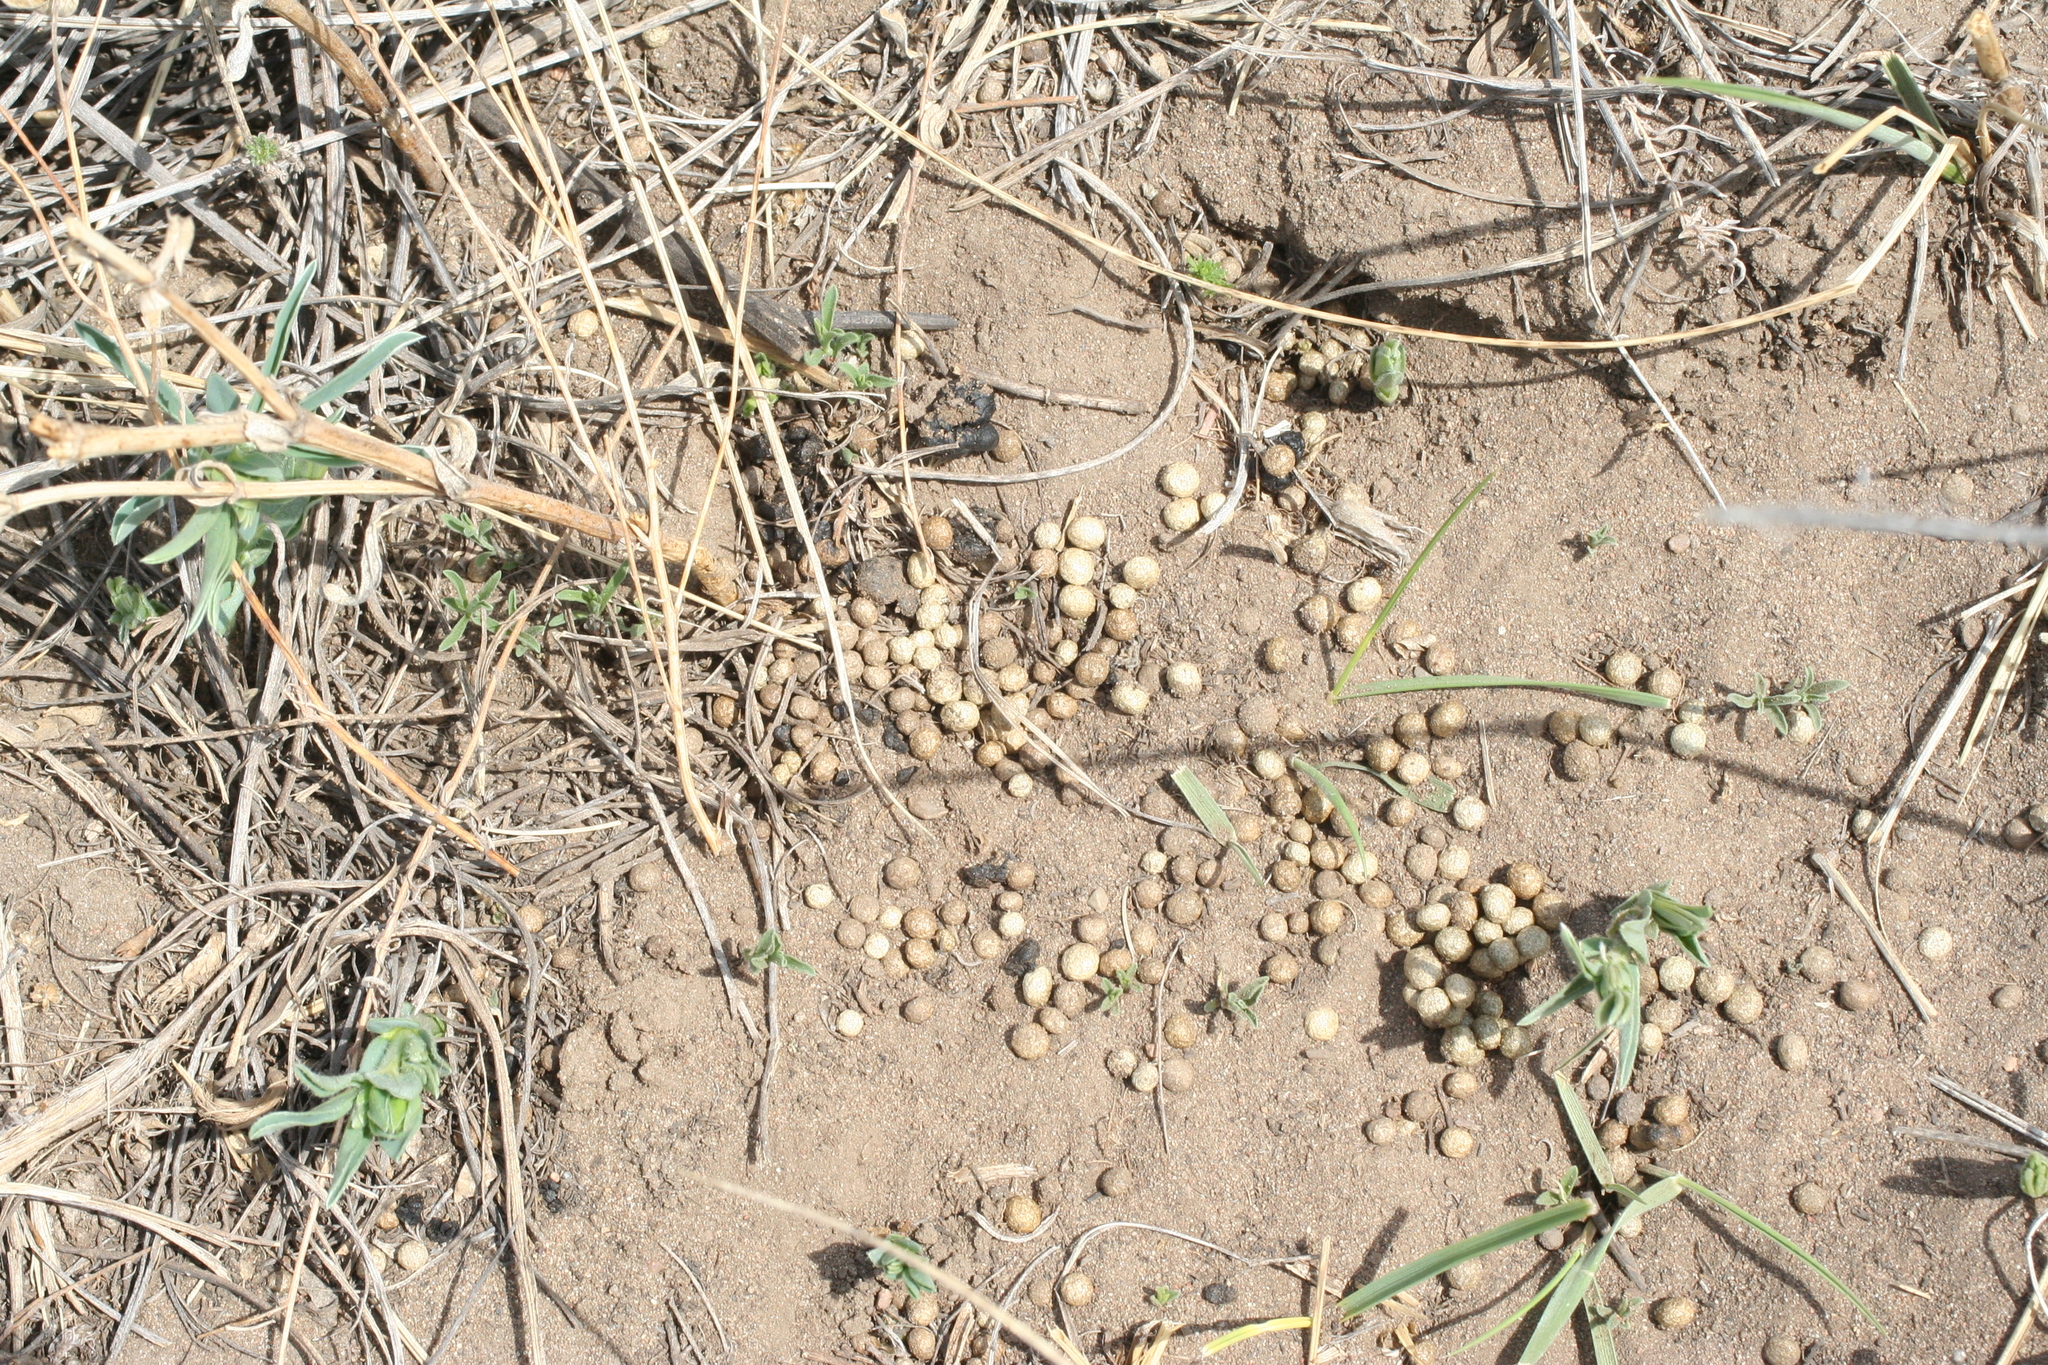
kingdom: Animalia
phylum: Chordata
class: Mammalia
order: Lagomorpha
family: Ochotonidae
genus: Ochotona
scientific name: Ochotona dauurica
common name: Daurian pika
